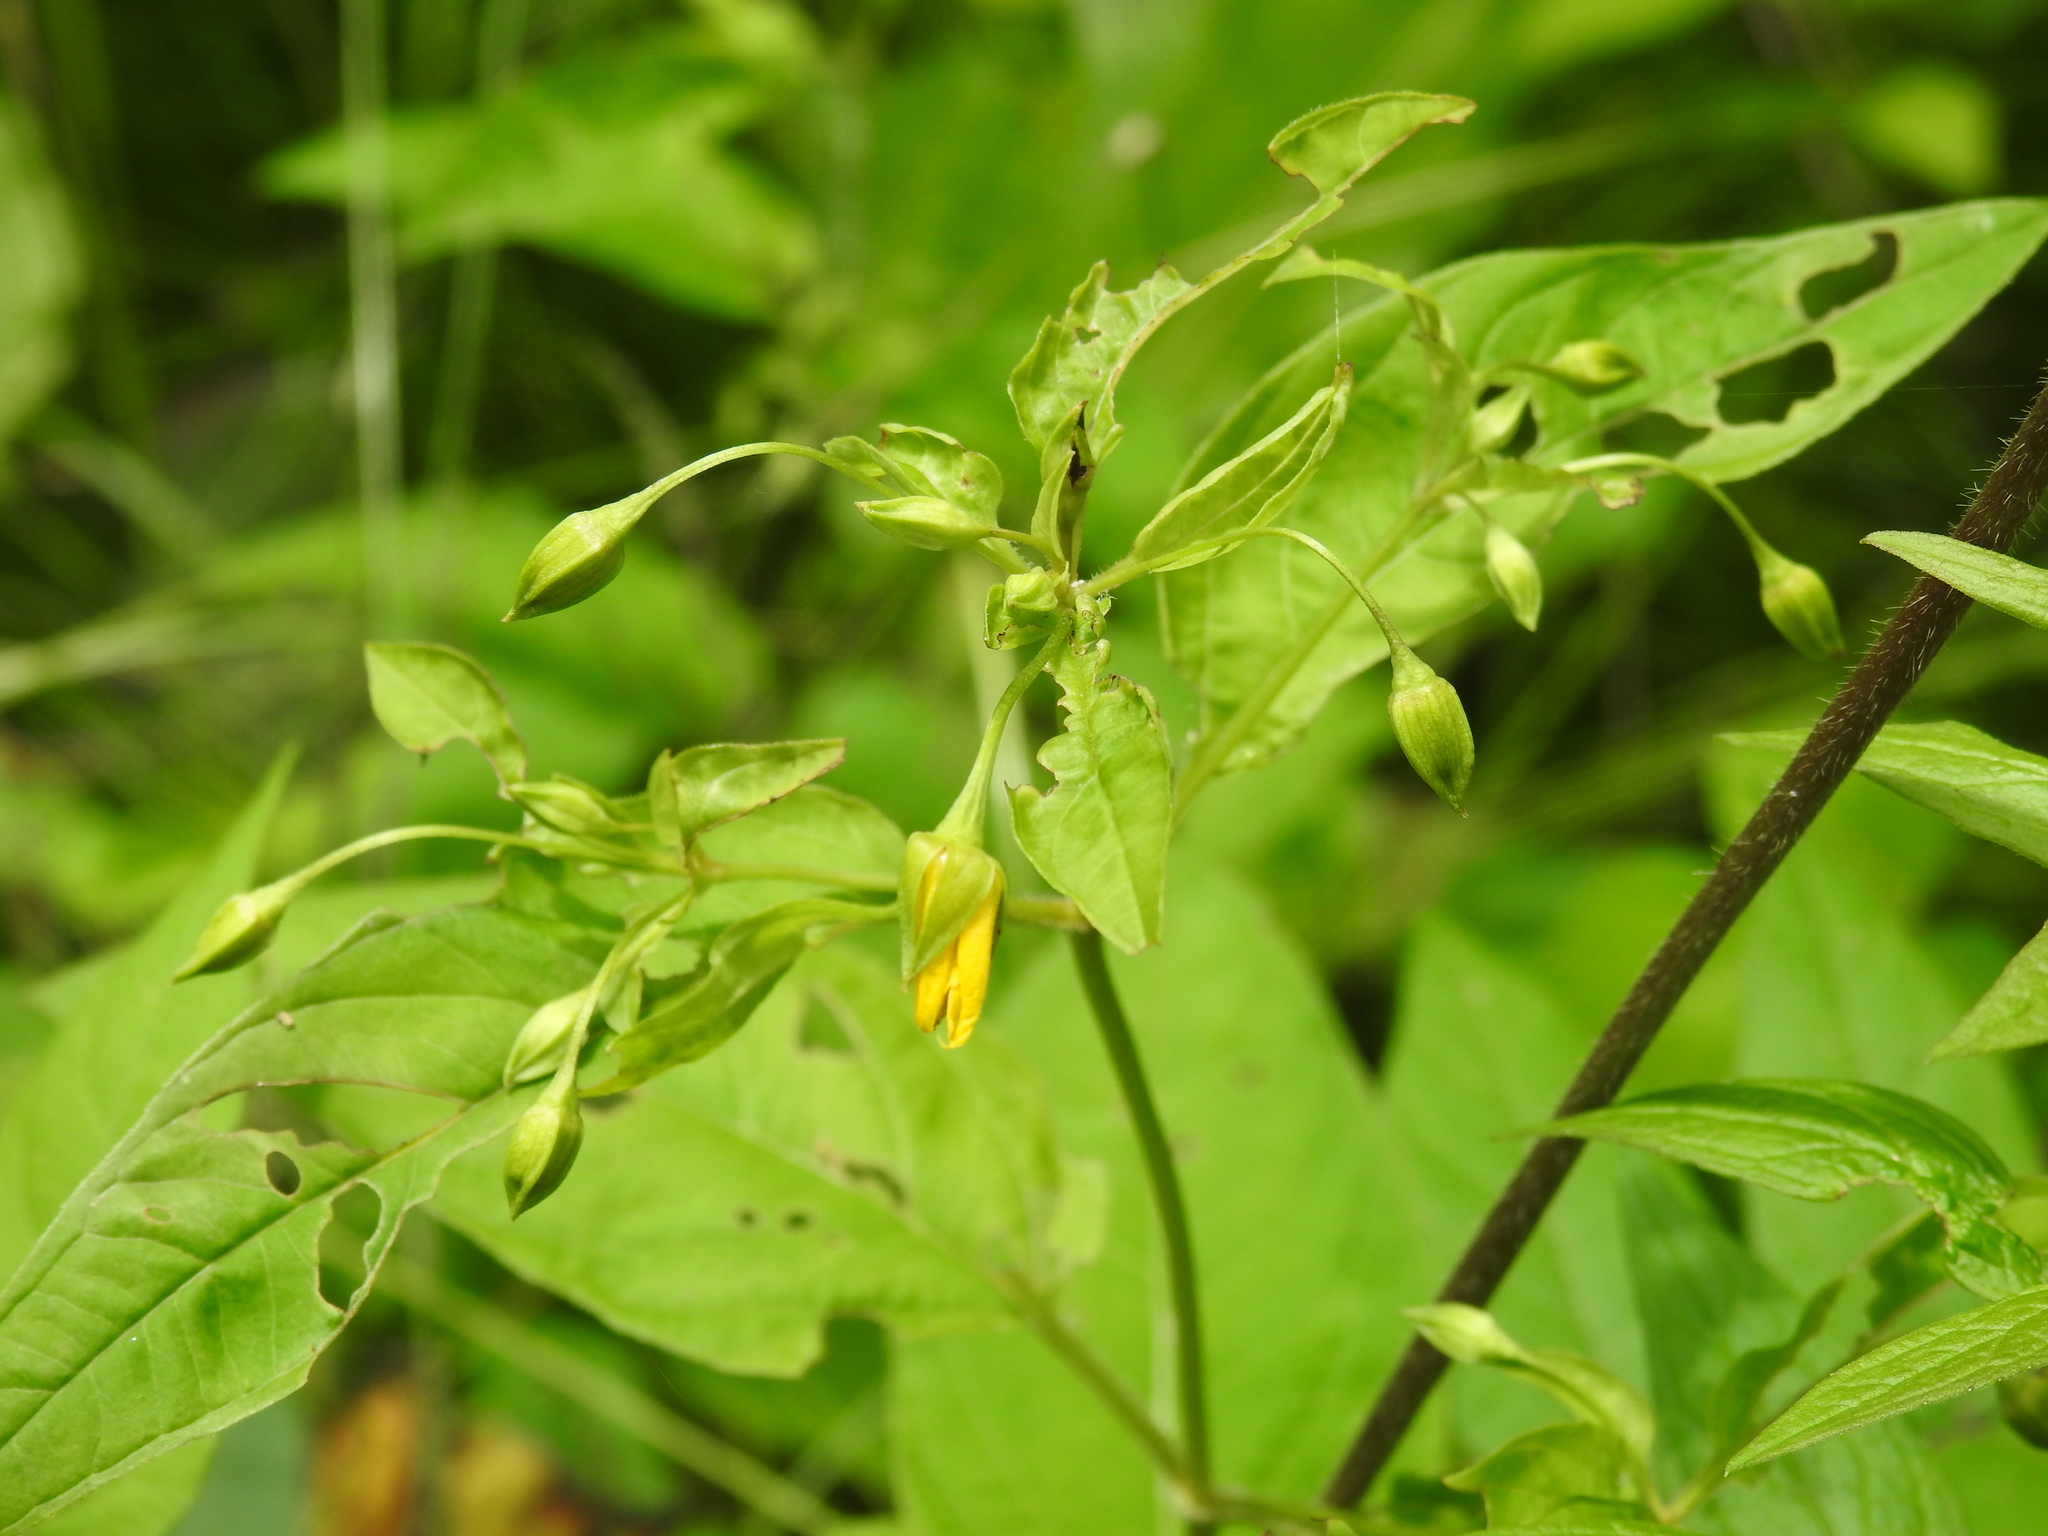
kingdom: Plantae
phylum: Tracheophyta
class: Magnoliopsida
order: Ericales
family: Primulaceae
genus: Lysimachia
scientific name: Lysimachia ciliata
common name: Fringed loosestrife
